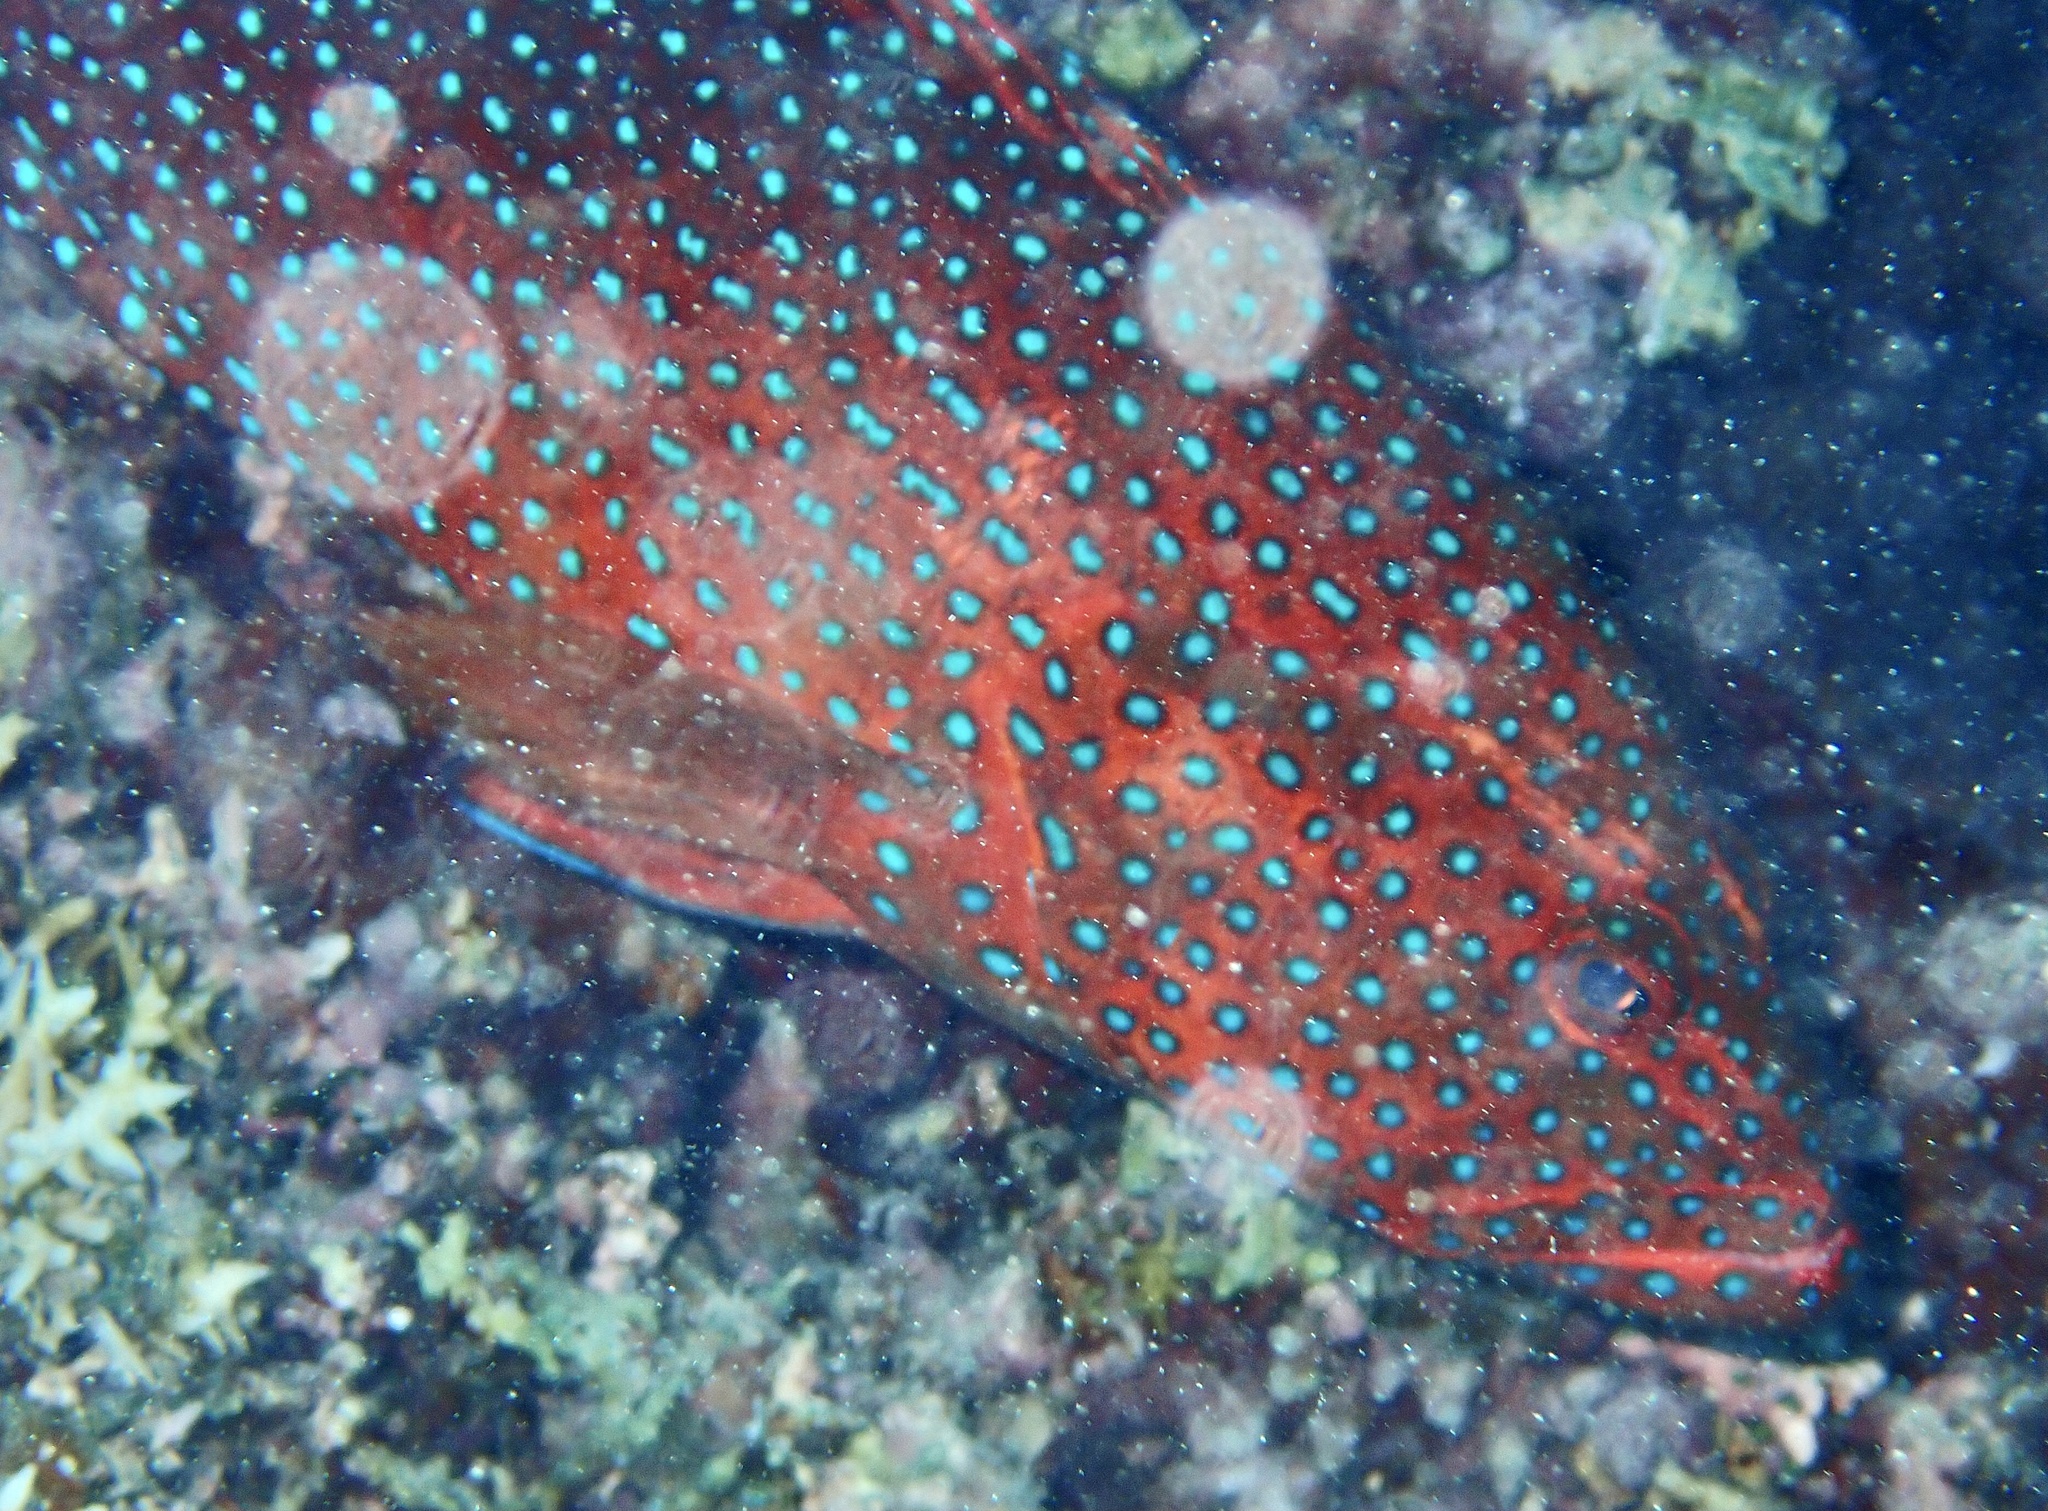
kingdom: Animalia
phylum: Chordata
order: Perciformes
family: Serranidae
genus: Cephalopholis
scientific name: Cephalopholis miniata
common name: Coral hind
